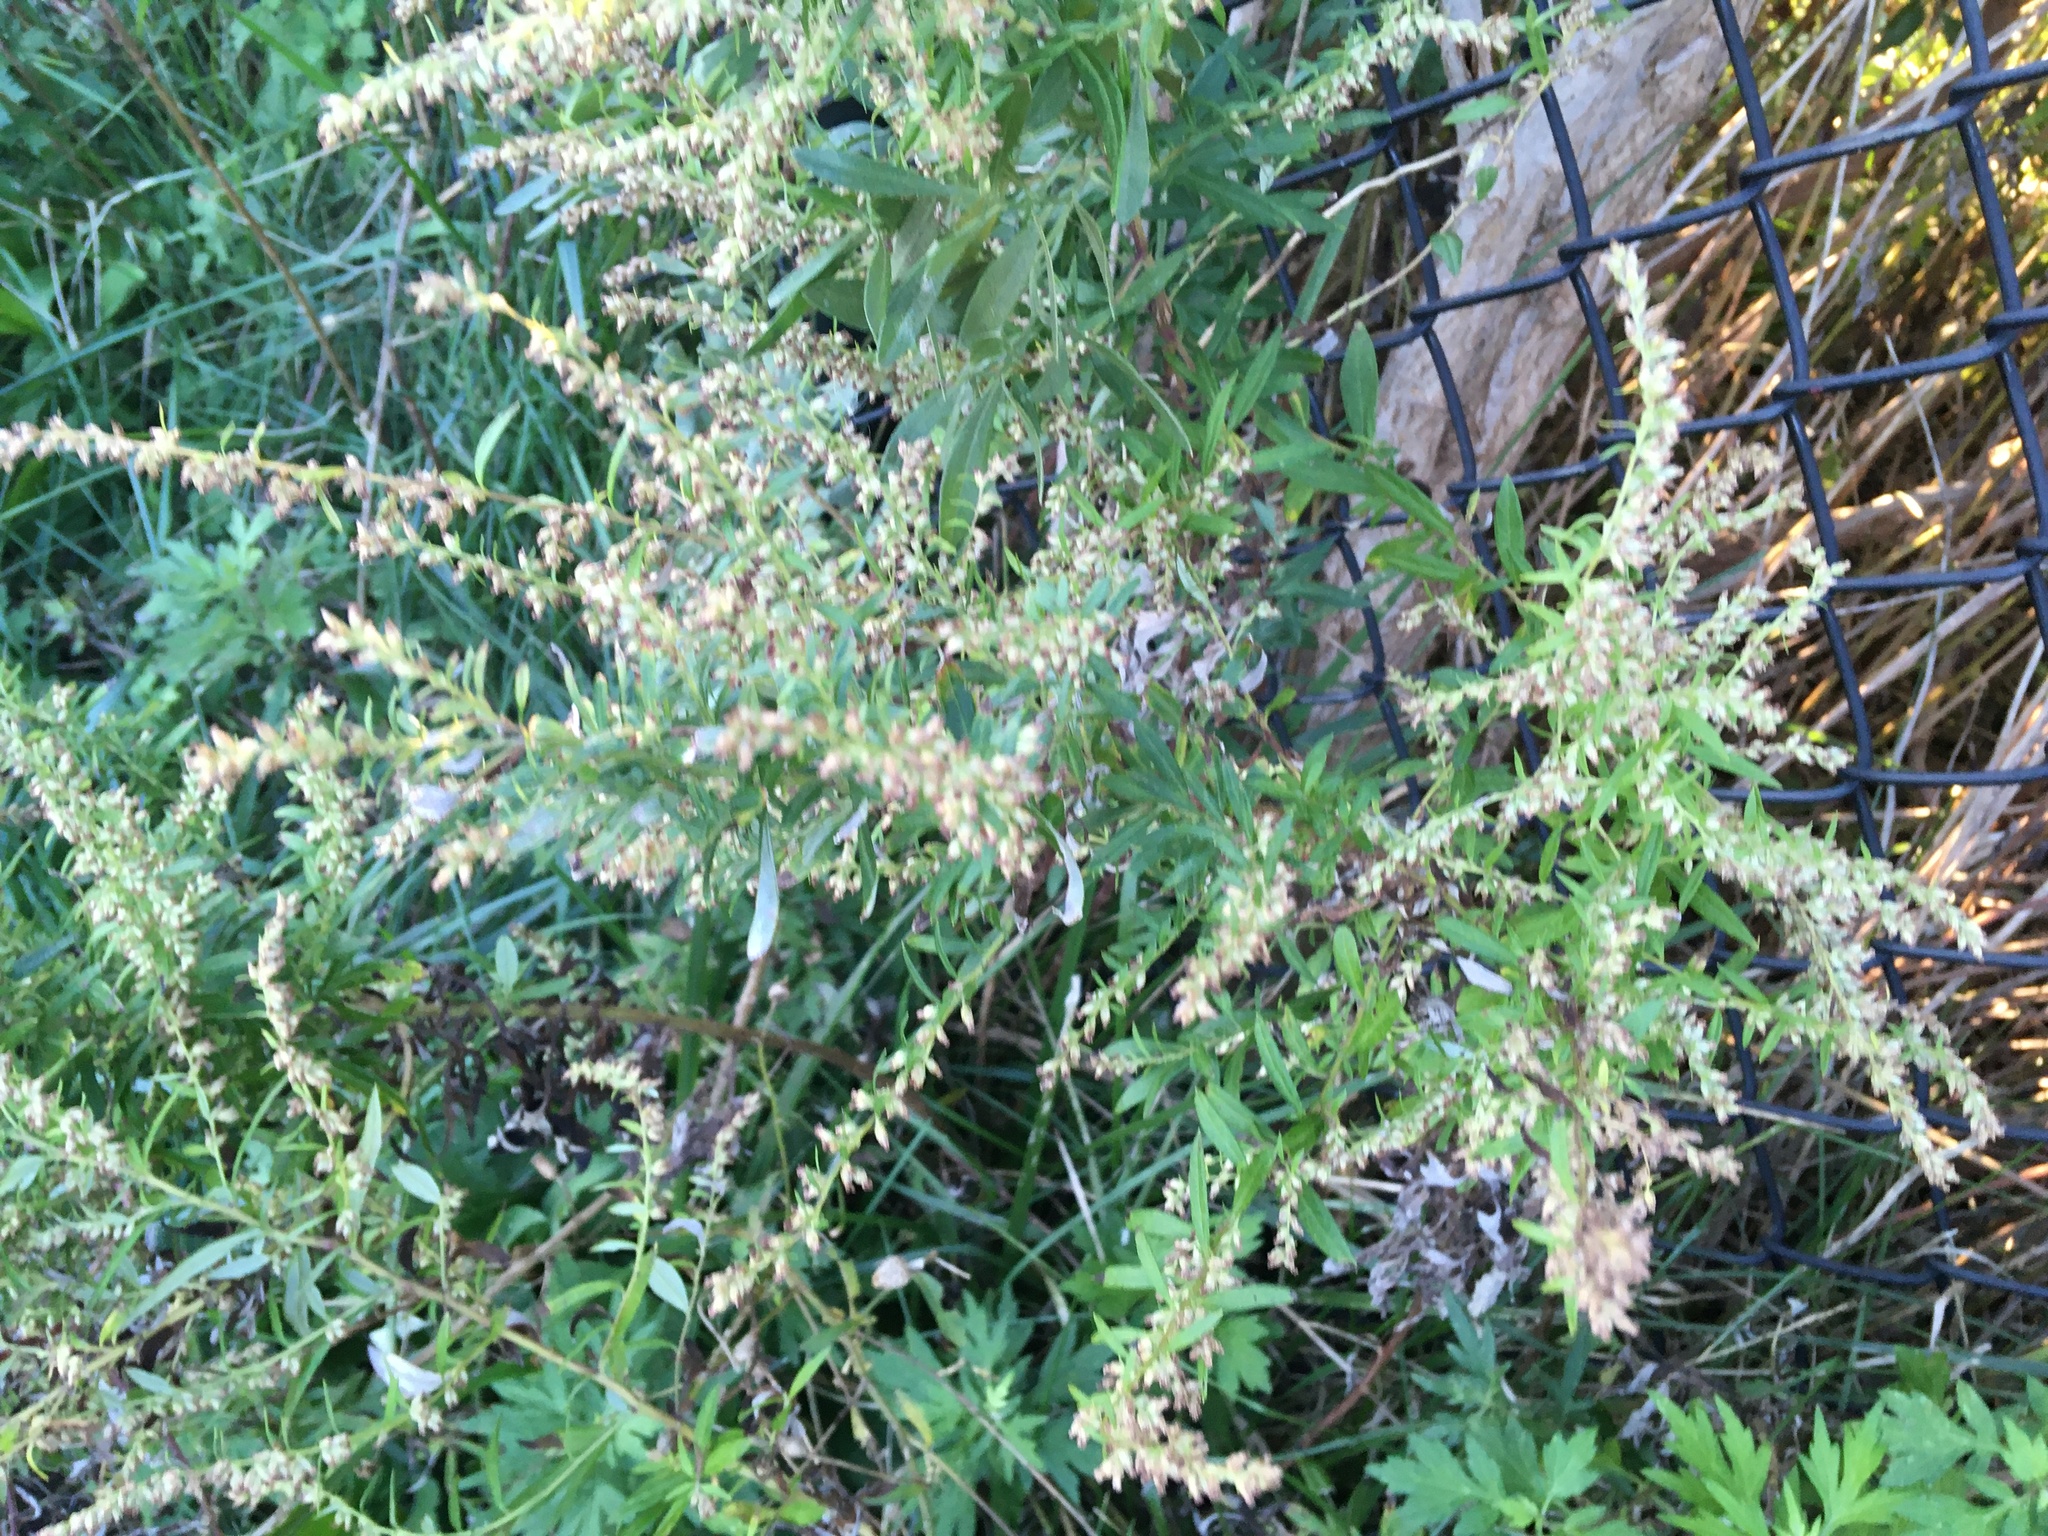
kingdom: Plantae
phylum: Tracheophyta
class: Magnoliopsida
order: Asterales
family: Asteraceae
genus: Artemisia
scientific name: Artemisia vulgaris
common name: Mugwort
